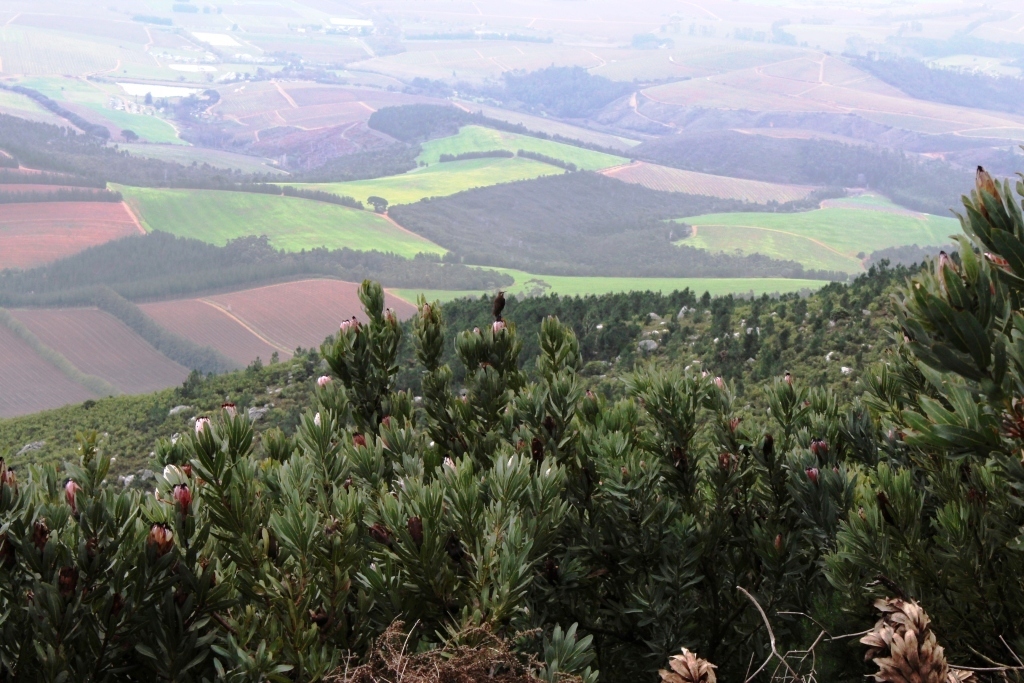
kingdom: Animalia
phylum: Chordata
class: Aves
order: Passeriformes
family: Promeropidae
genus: Promerops
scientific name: Promerops cafer
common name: Cape sugarbird
